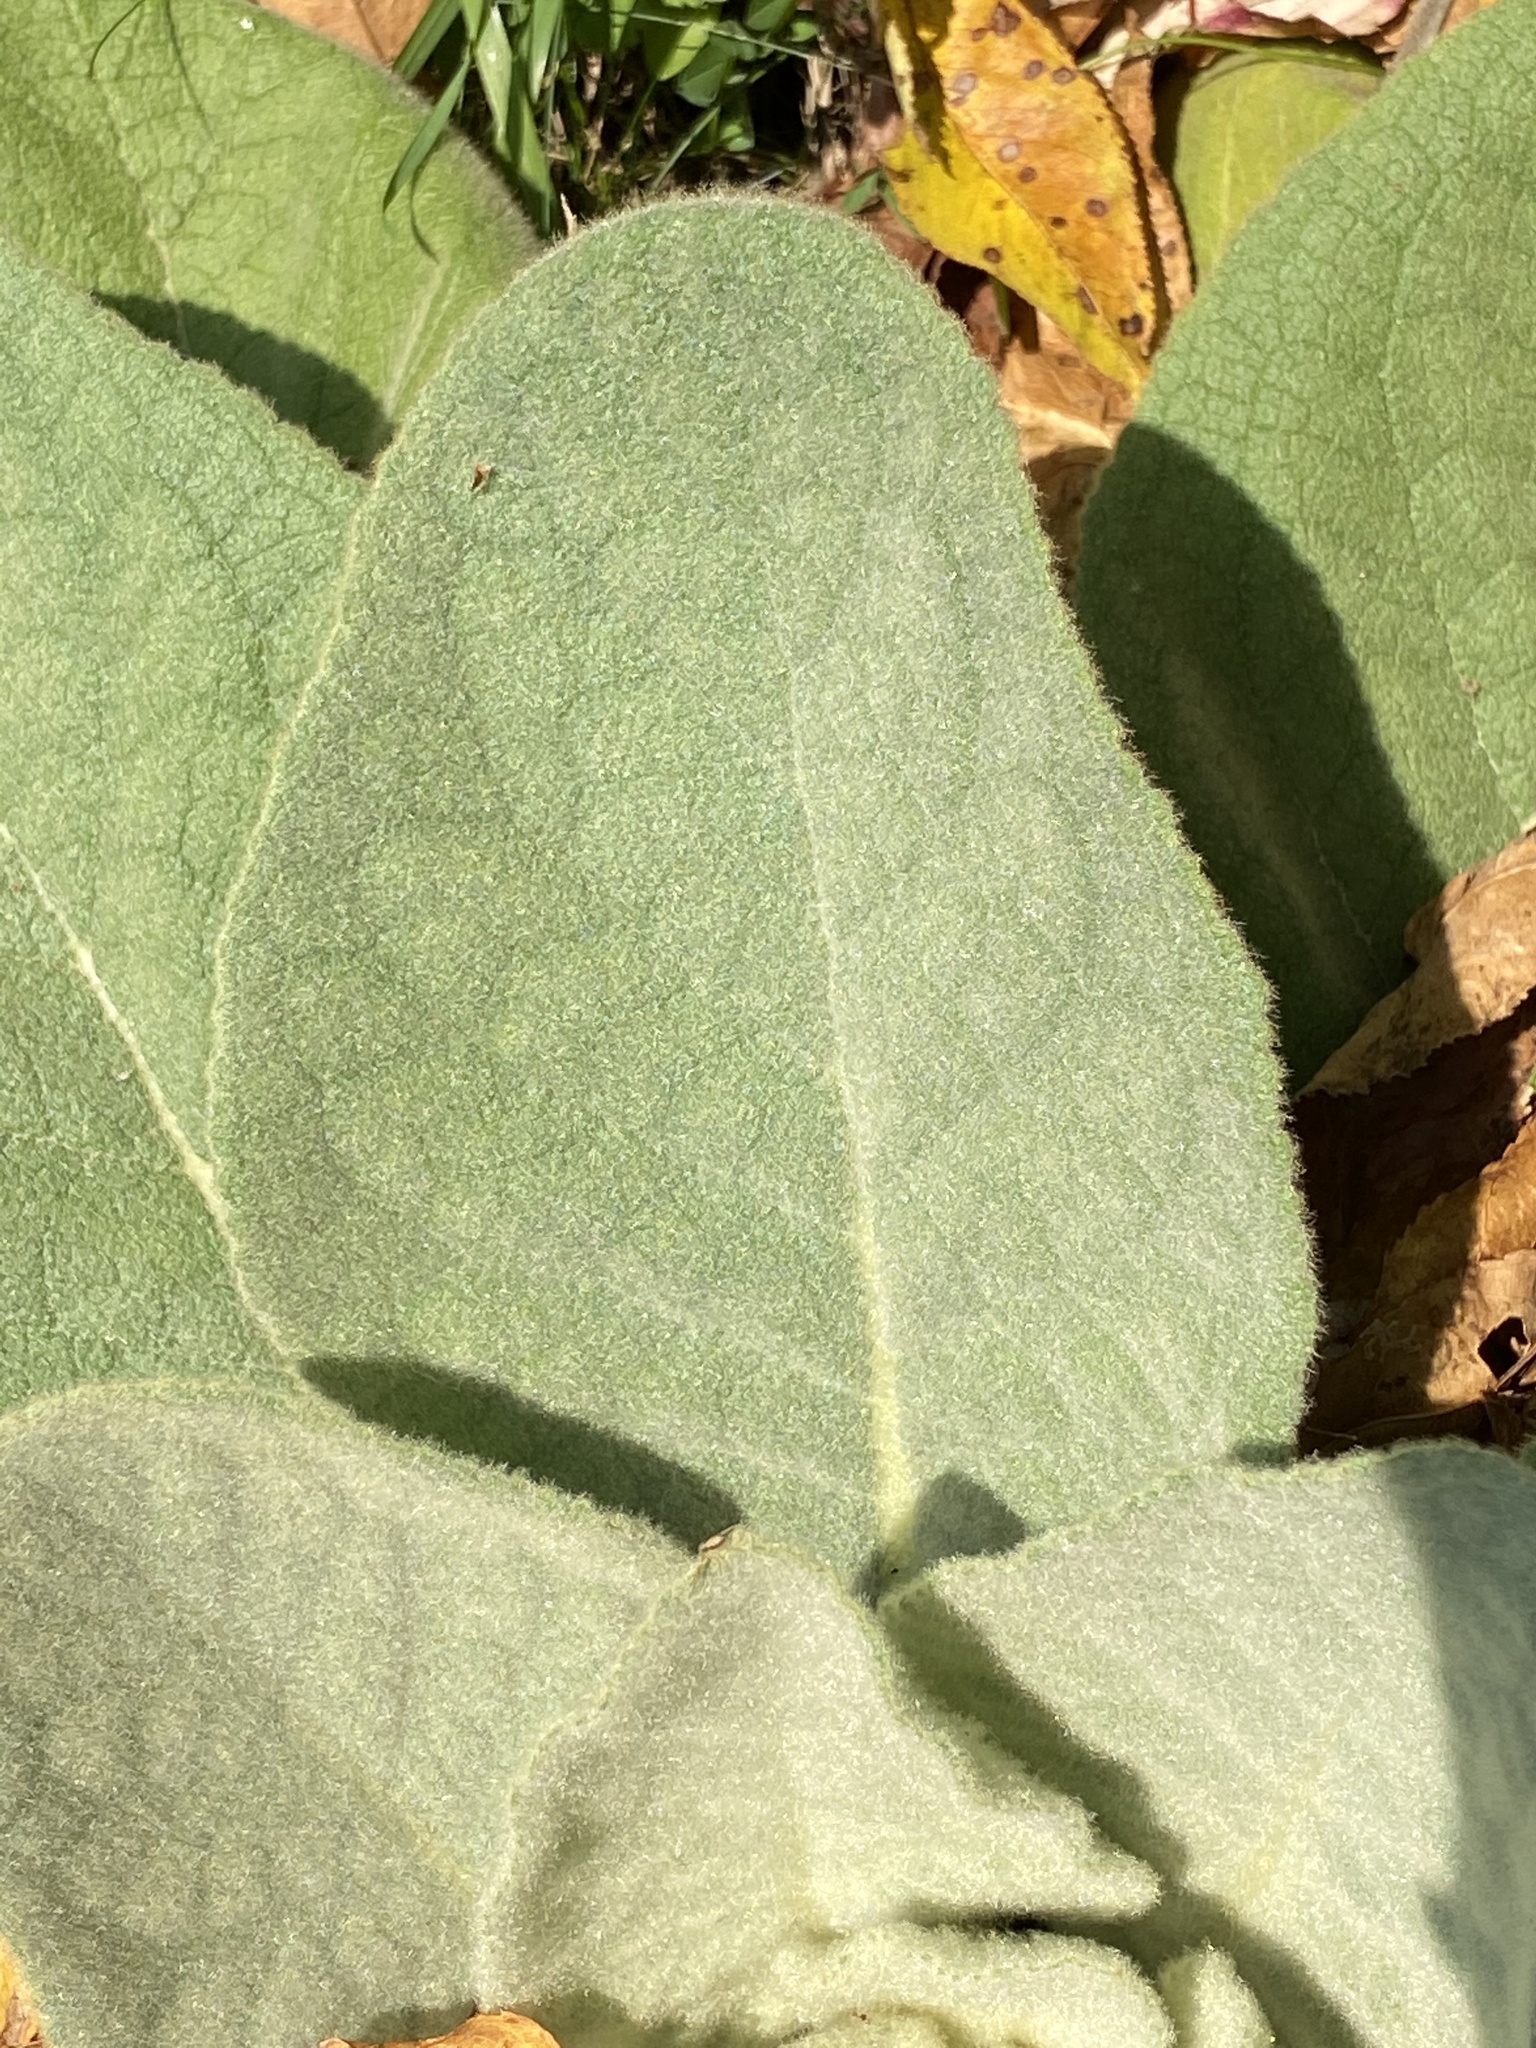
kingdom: Plantae
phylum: Tracheophyta
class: Magnoliopsida
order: Lamiales
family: Scrophulariaceae
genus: Verbascum
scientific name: Verbascum thapsus
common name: Common mullein
